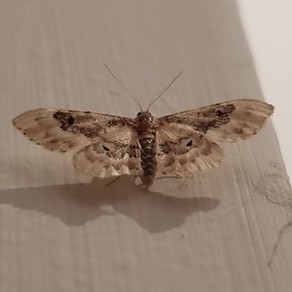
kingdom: Animalia
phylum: Arthropoda
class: Insecta
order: Lepidoptera
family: Geometridae
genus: Idaea
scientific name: Idaea rusticata
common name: Least carpet
